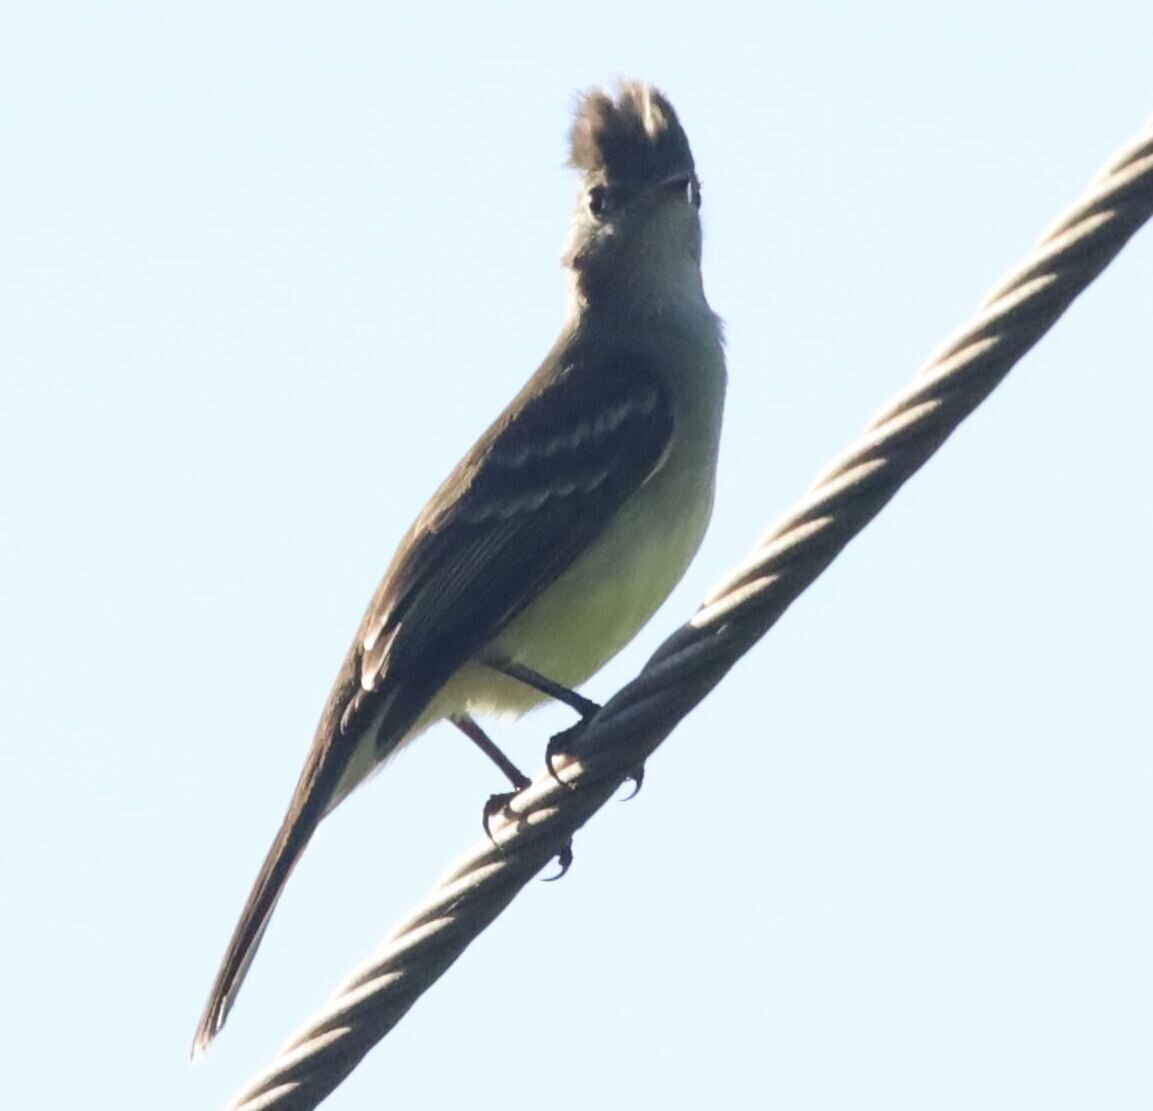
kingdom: Animalia
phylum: Chordata
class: Aves
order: Passeriformes
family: Tyrannidae
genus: Elaenia
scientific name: Elaenia flavogaster
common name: Yellow-bellied elaenia
